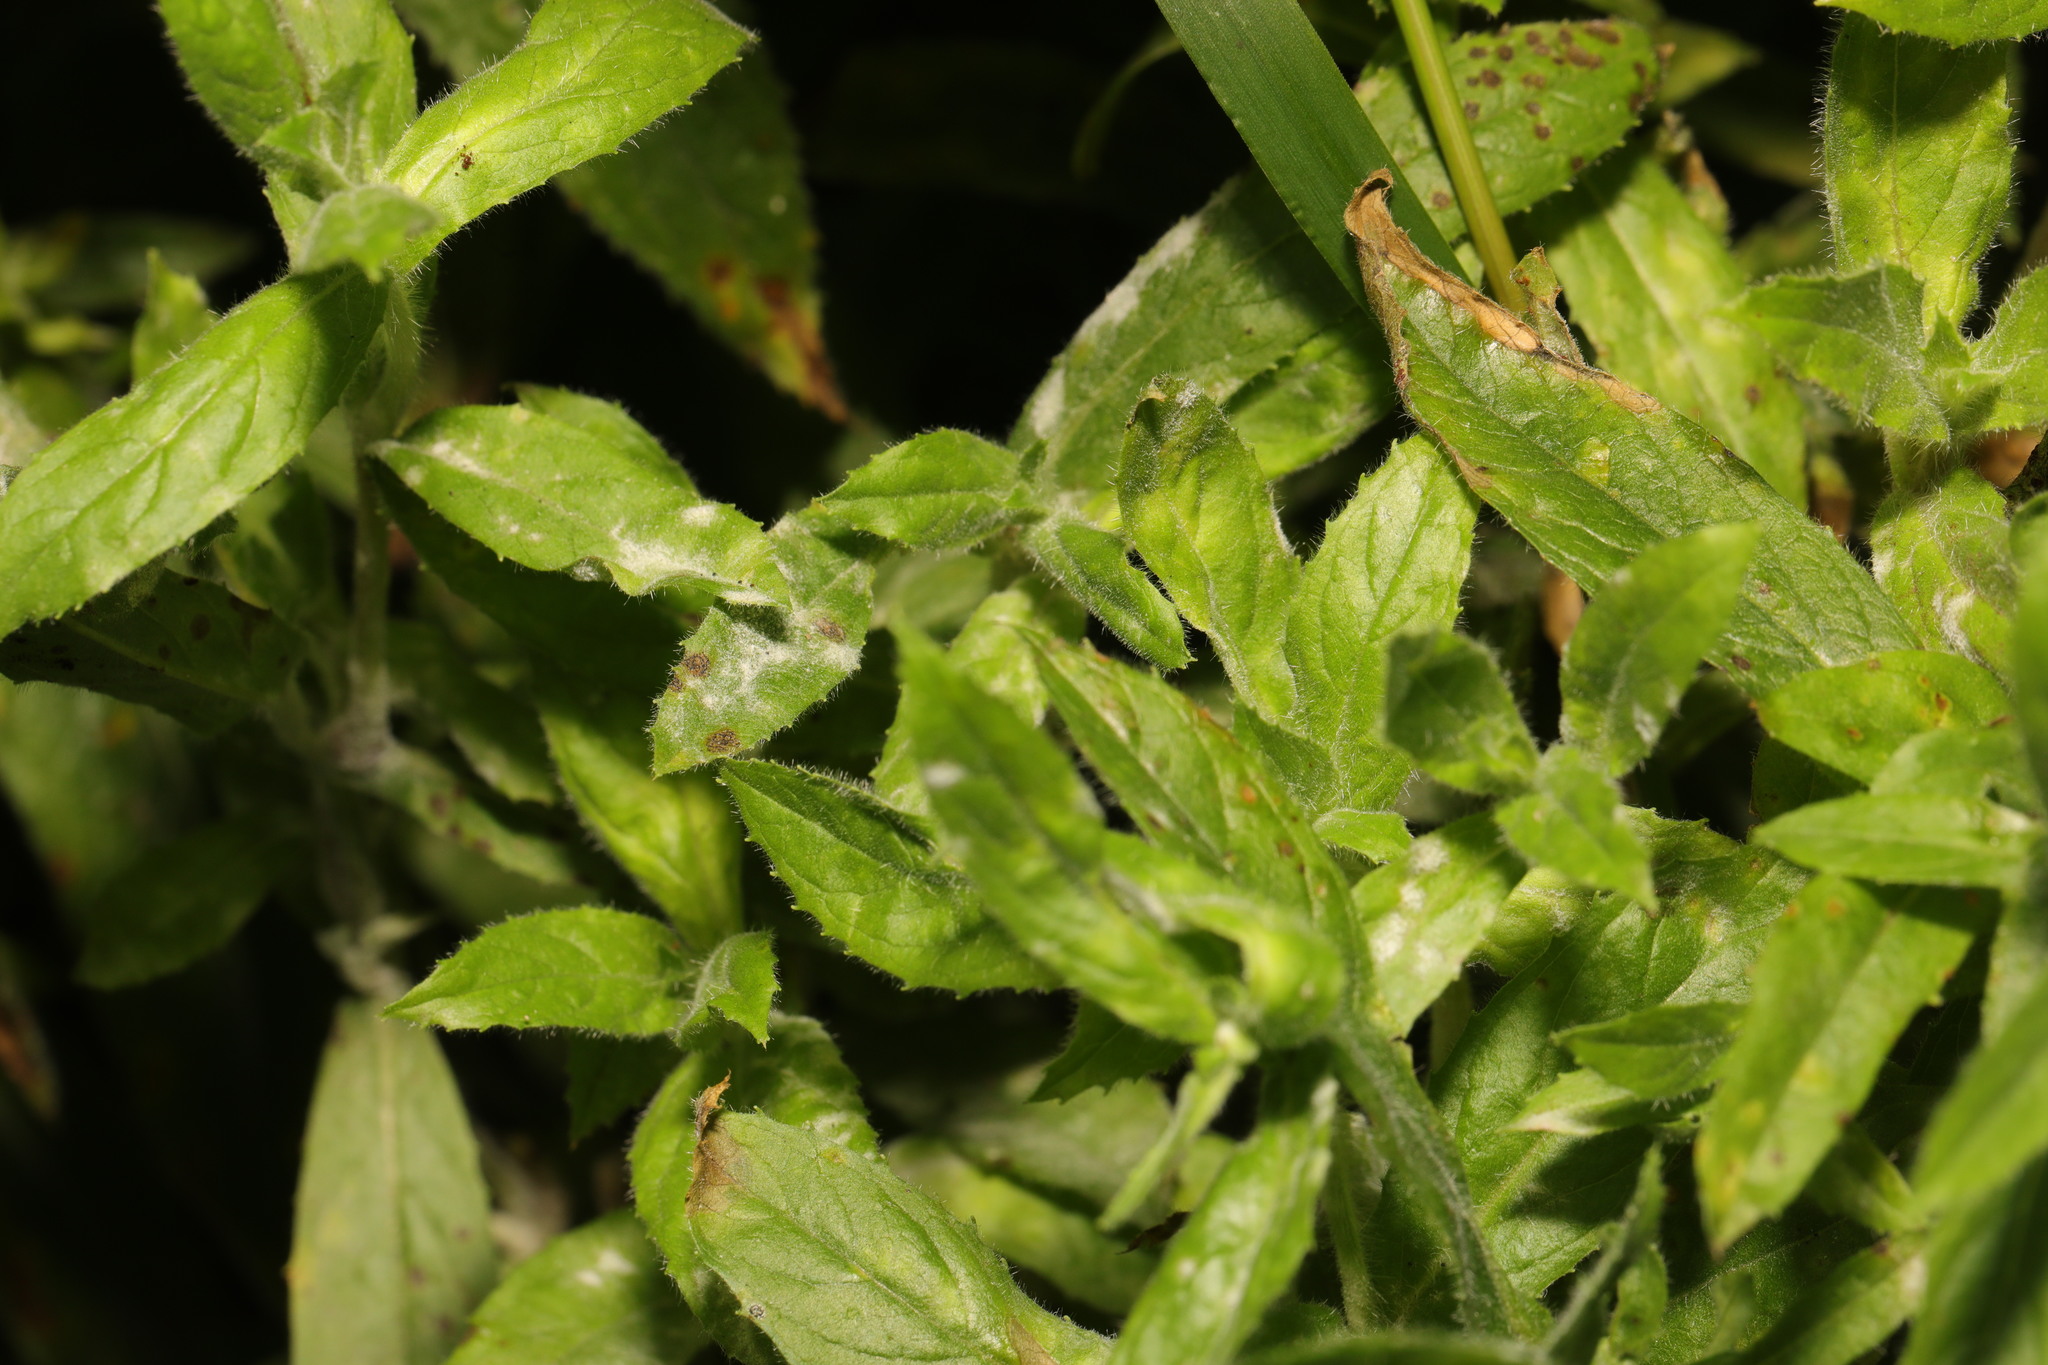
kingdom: Fungi
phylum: Ascomycota
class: Leotiomycetes
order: Helotiales
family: Erysiphaceae
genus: Podosphaera
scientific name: Podosphaera epilobii
